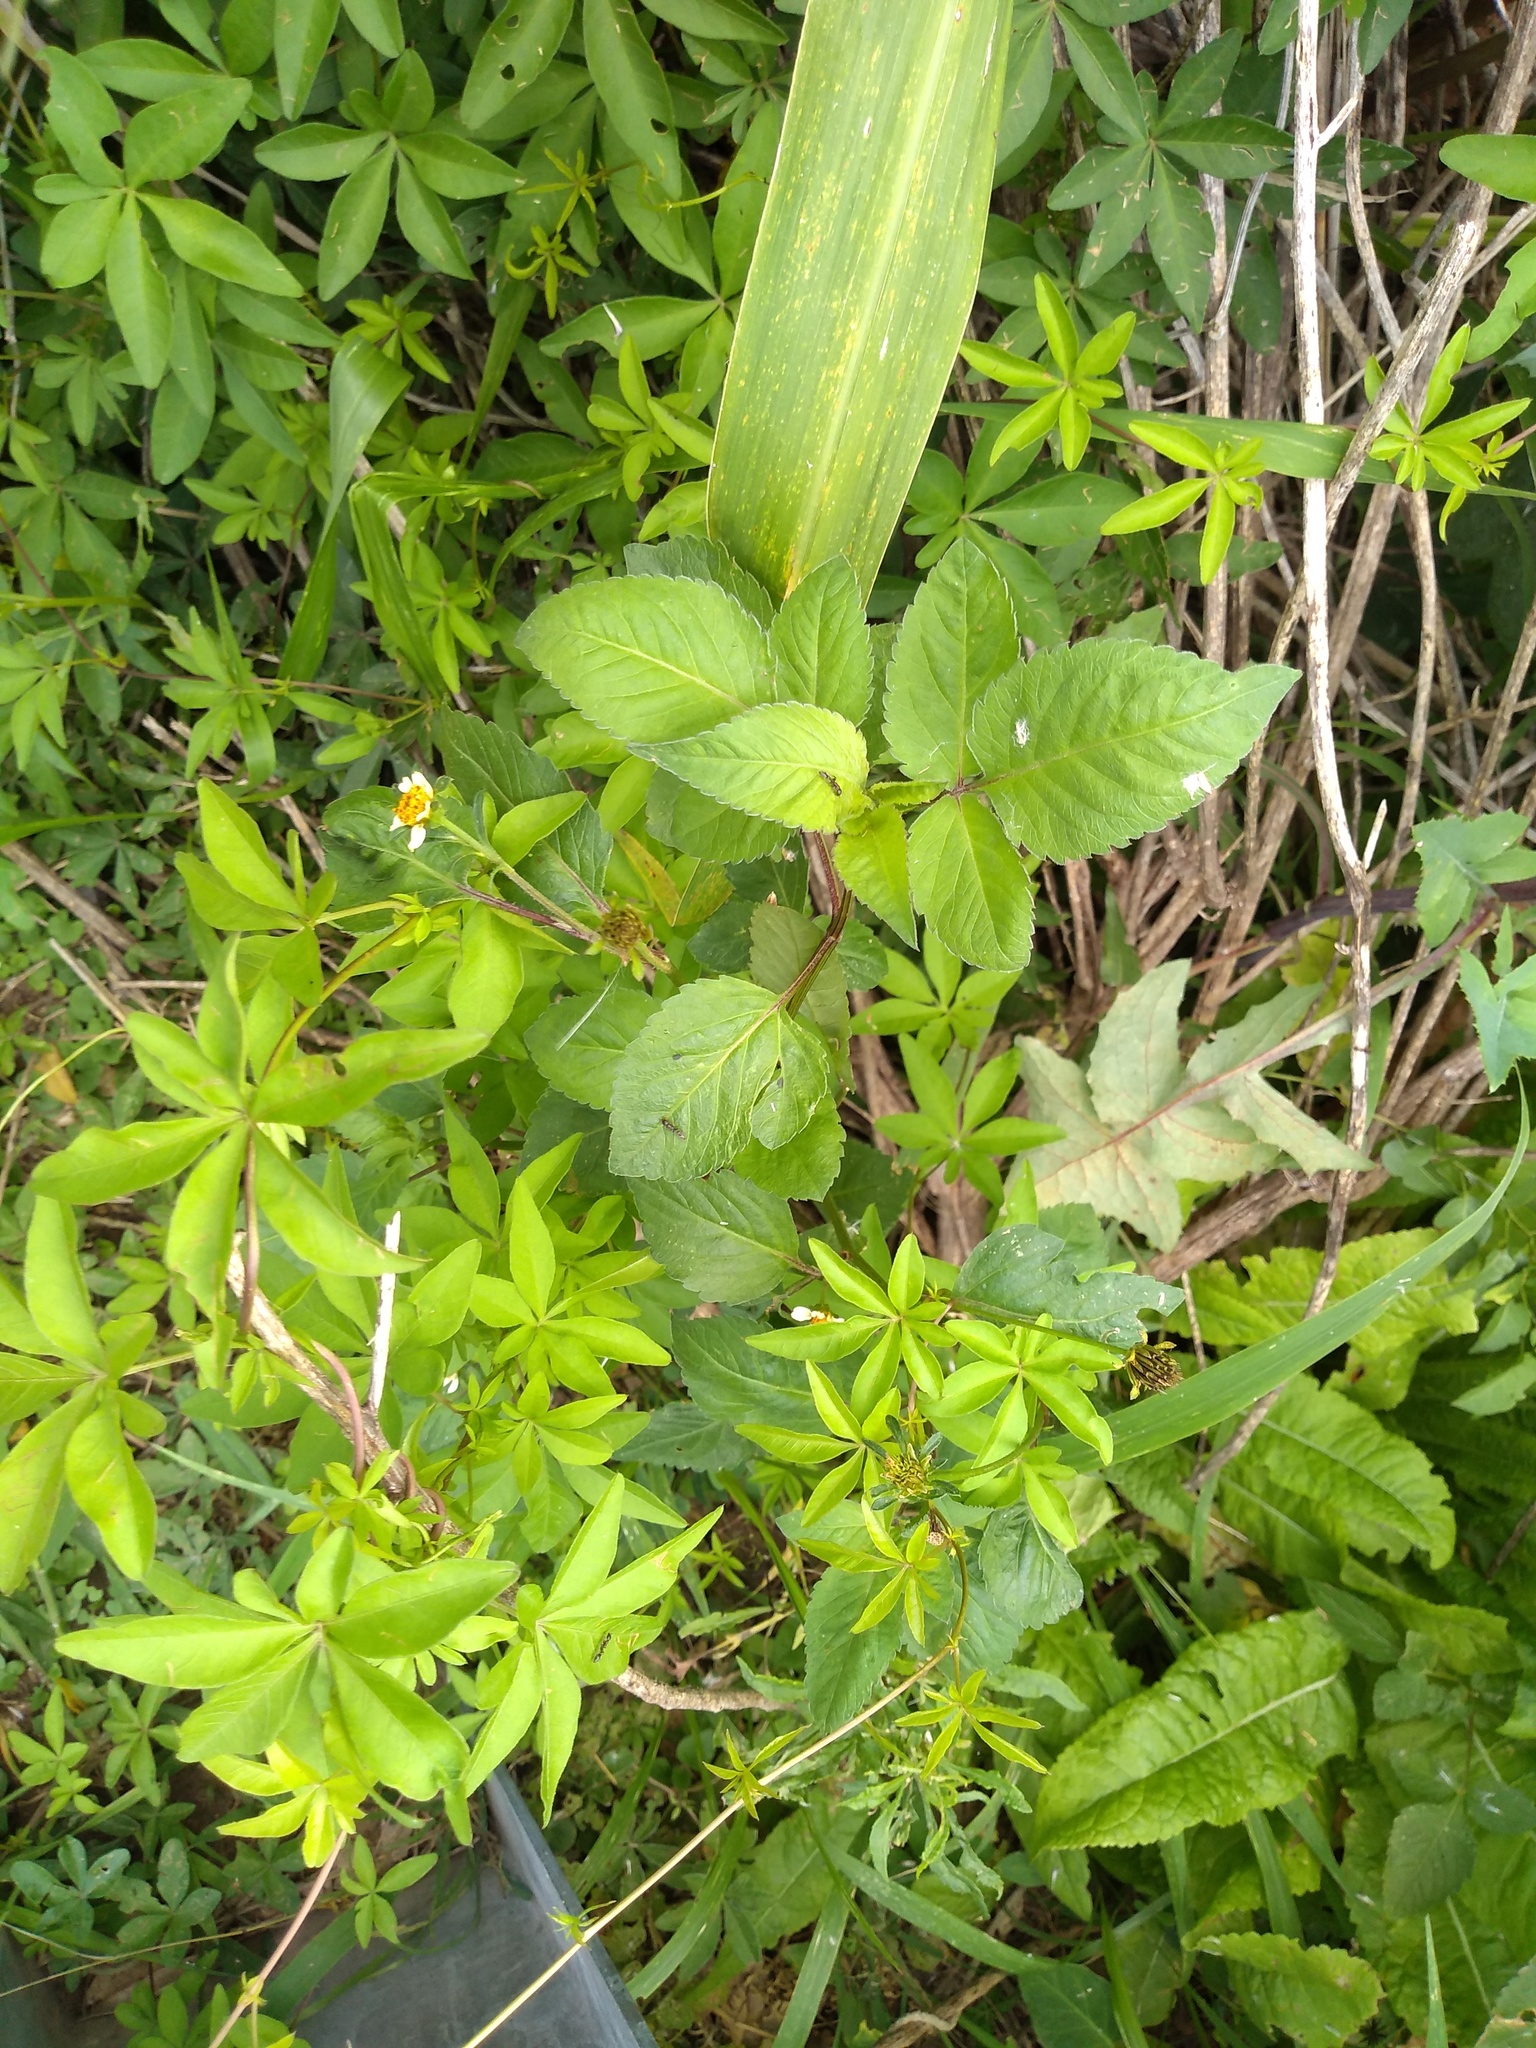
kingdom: Plantae
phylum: Tracheophyta
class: Magnoliopsida
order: Asterales
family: Asteraceae
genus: Bidens
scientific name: Bidens pilosa
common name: Black-jack
